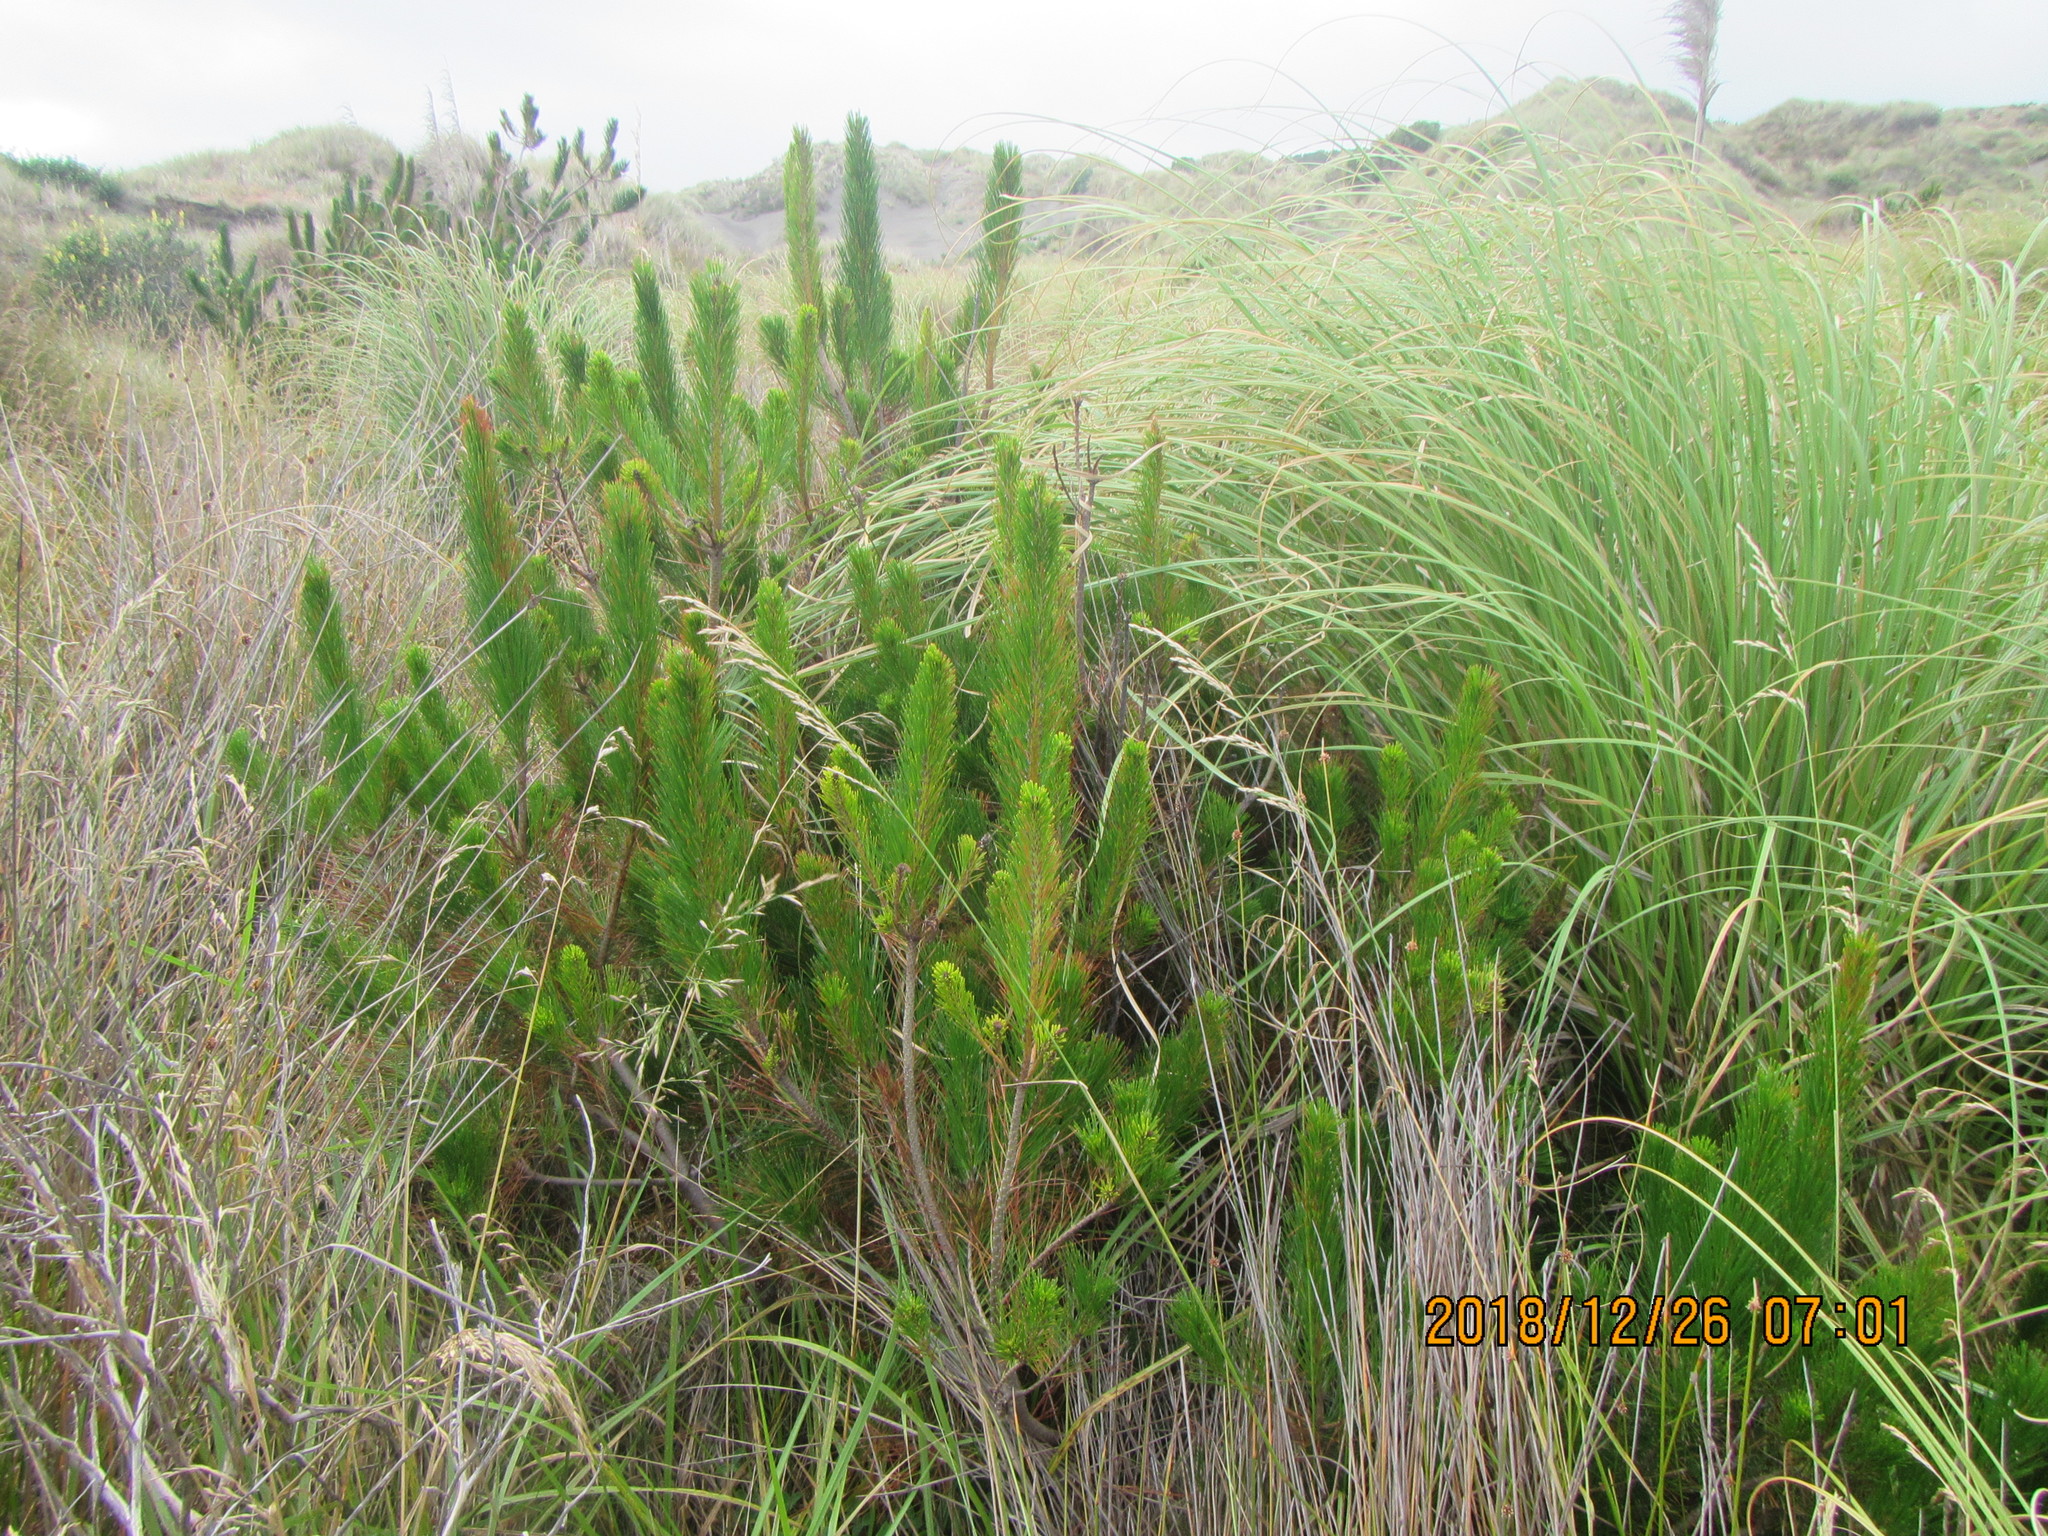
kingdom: Plantae
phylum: Tracheophyta
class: Pinopsida
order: Pinales
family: Pinaceae
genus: Pinus
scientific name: Pinus radiata
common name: Monterey pine
